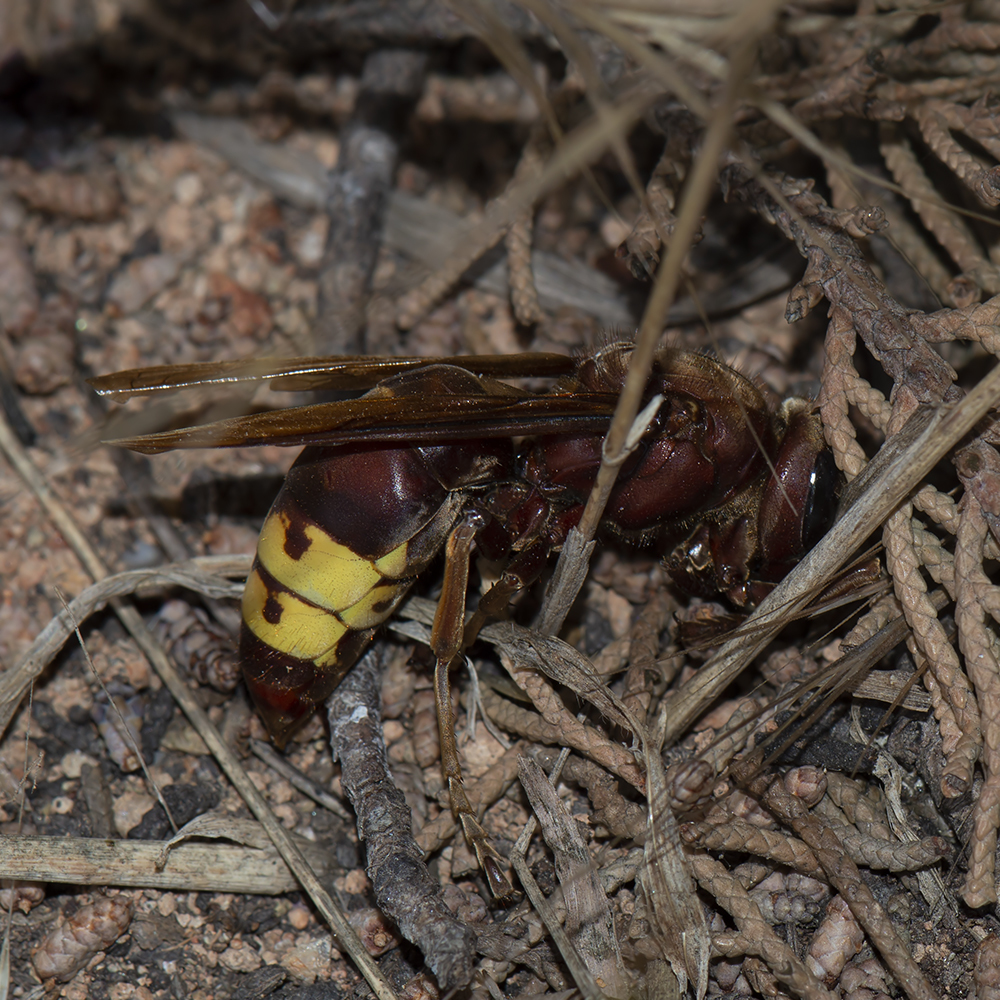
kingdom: Animalia
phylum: Arthropoda
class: Insecta
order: Hymenoptera
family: Vespidae
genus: Vespa
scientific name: Vespa orientalis
